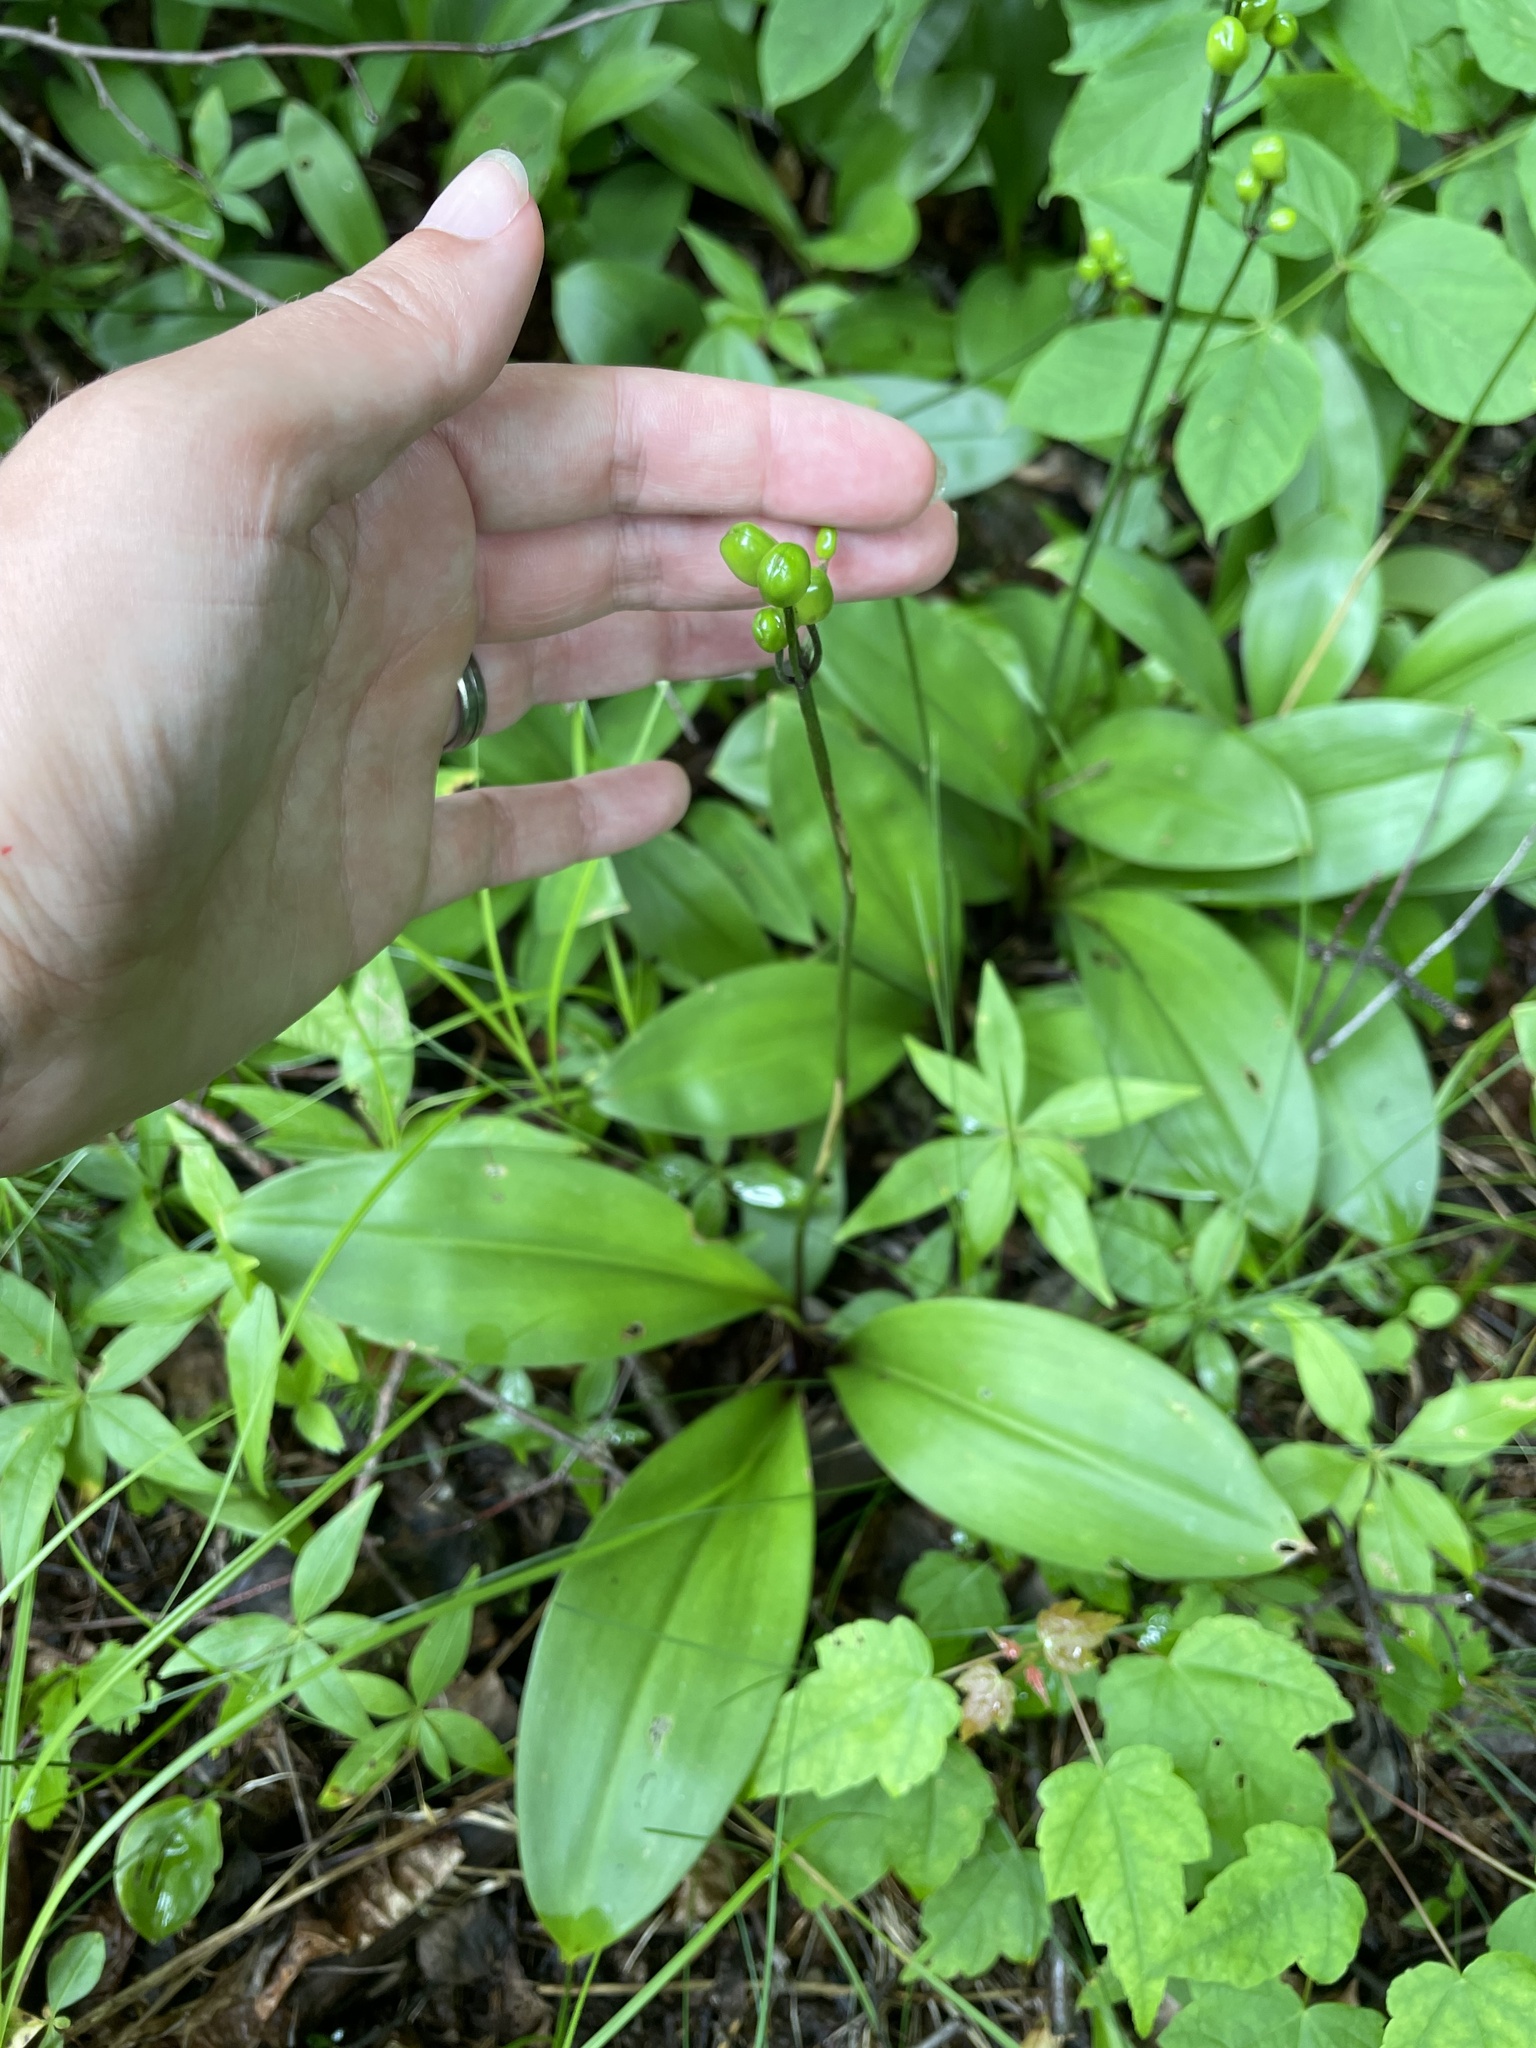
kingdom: Plantae
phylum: Tracheophyta
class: Liliopsida
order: Liliales
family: Liliaceae
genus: Clintonia
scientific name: Clintonia borealis
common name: Yellow clintonia
